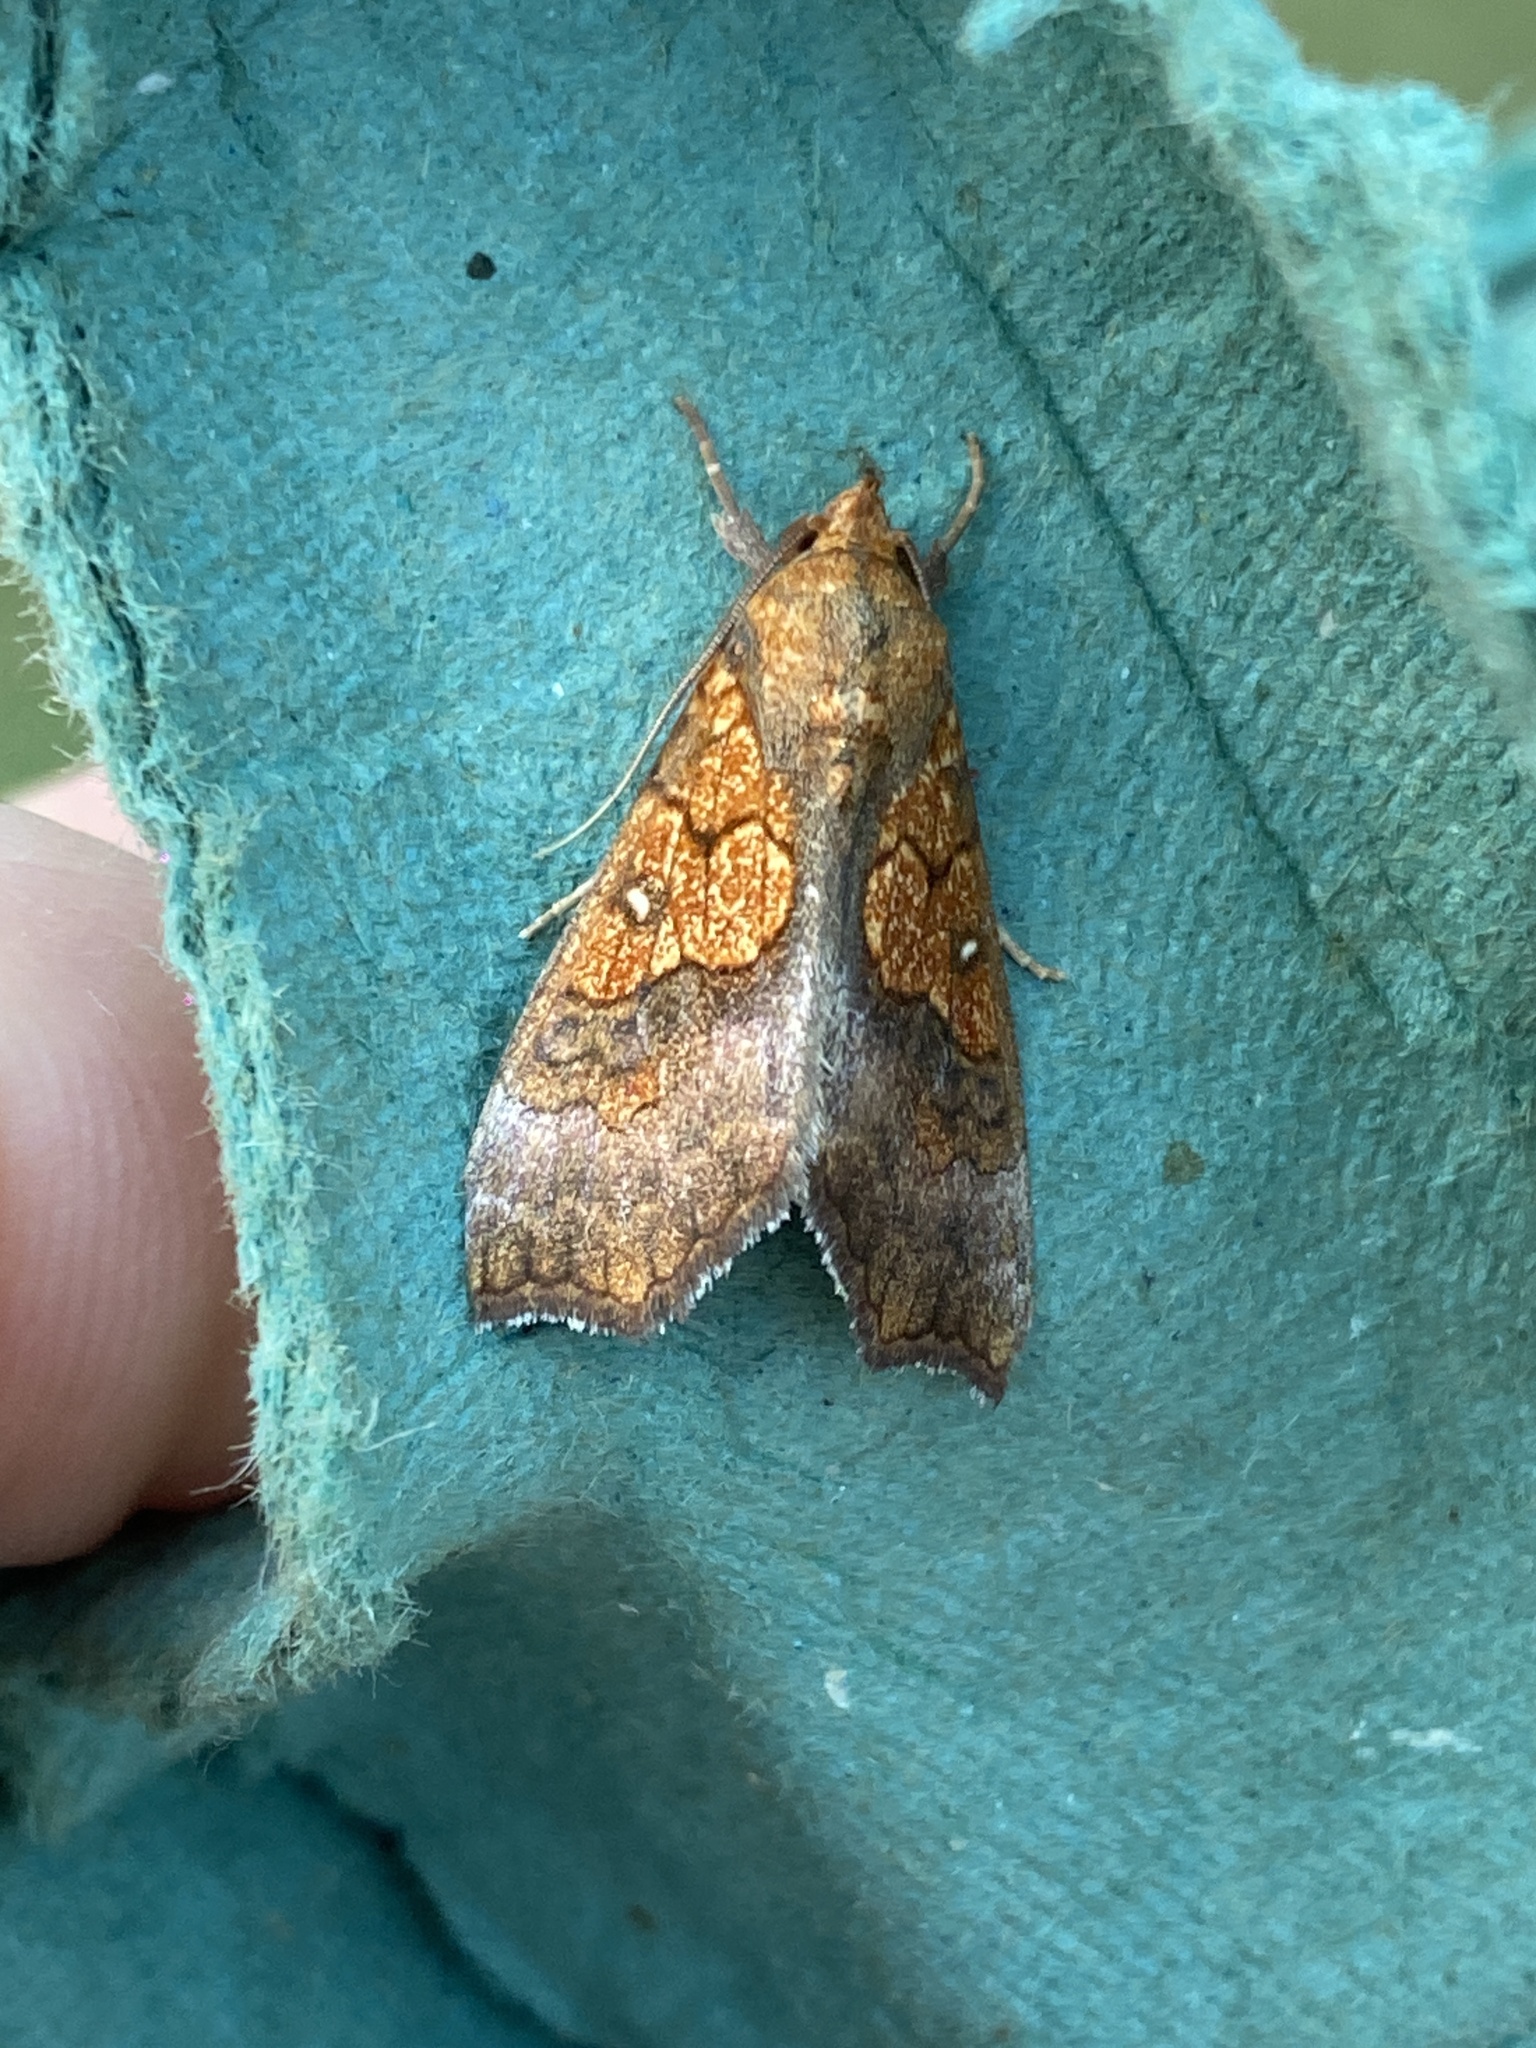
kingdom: Animalia
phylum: Arthropoda
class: Insecta
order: Lepidoptera
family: Erebidae
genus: Anomis
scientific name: Anomis flava
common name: Moth
